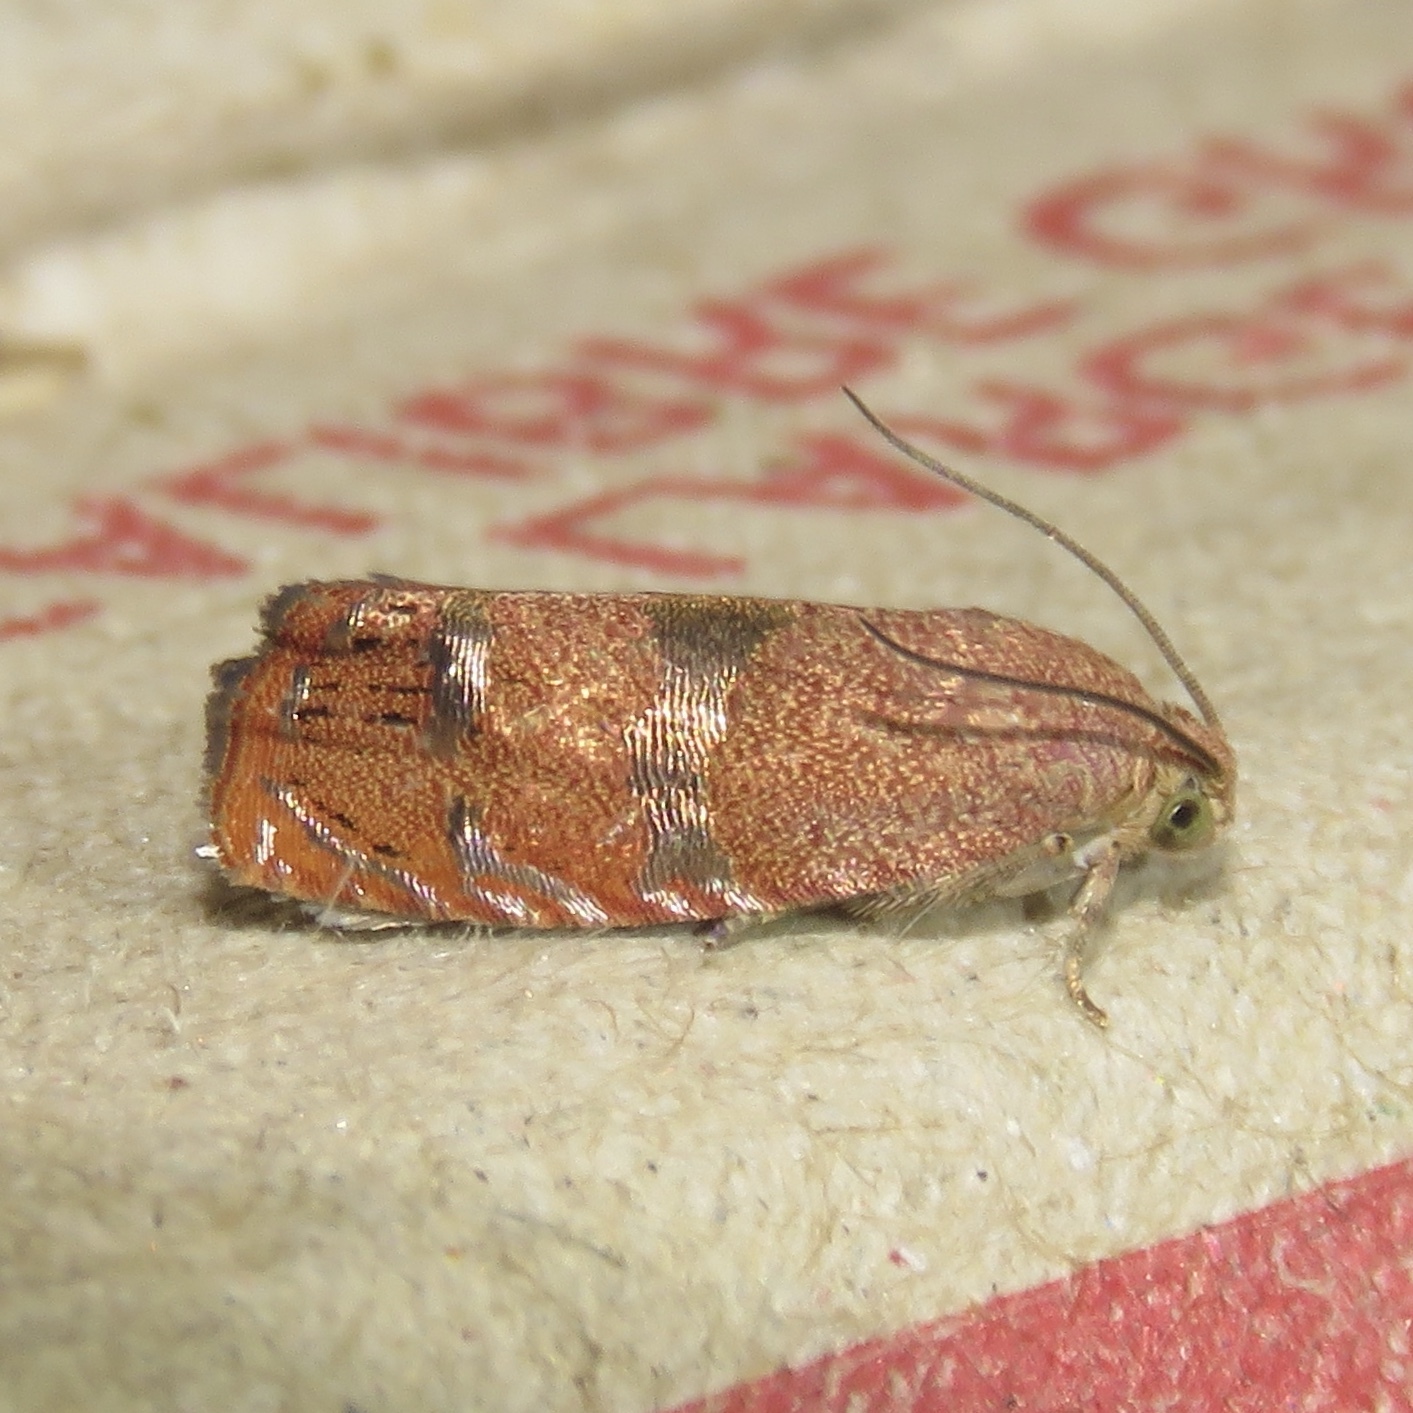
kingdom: Animalia
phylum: Arthropoda
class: Insecta
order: Lepidoptera
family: Tortricidae
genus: Cydia
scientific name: Cydia latiferreana
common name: Filbertworm moth
